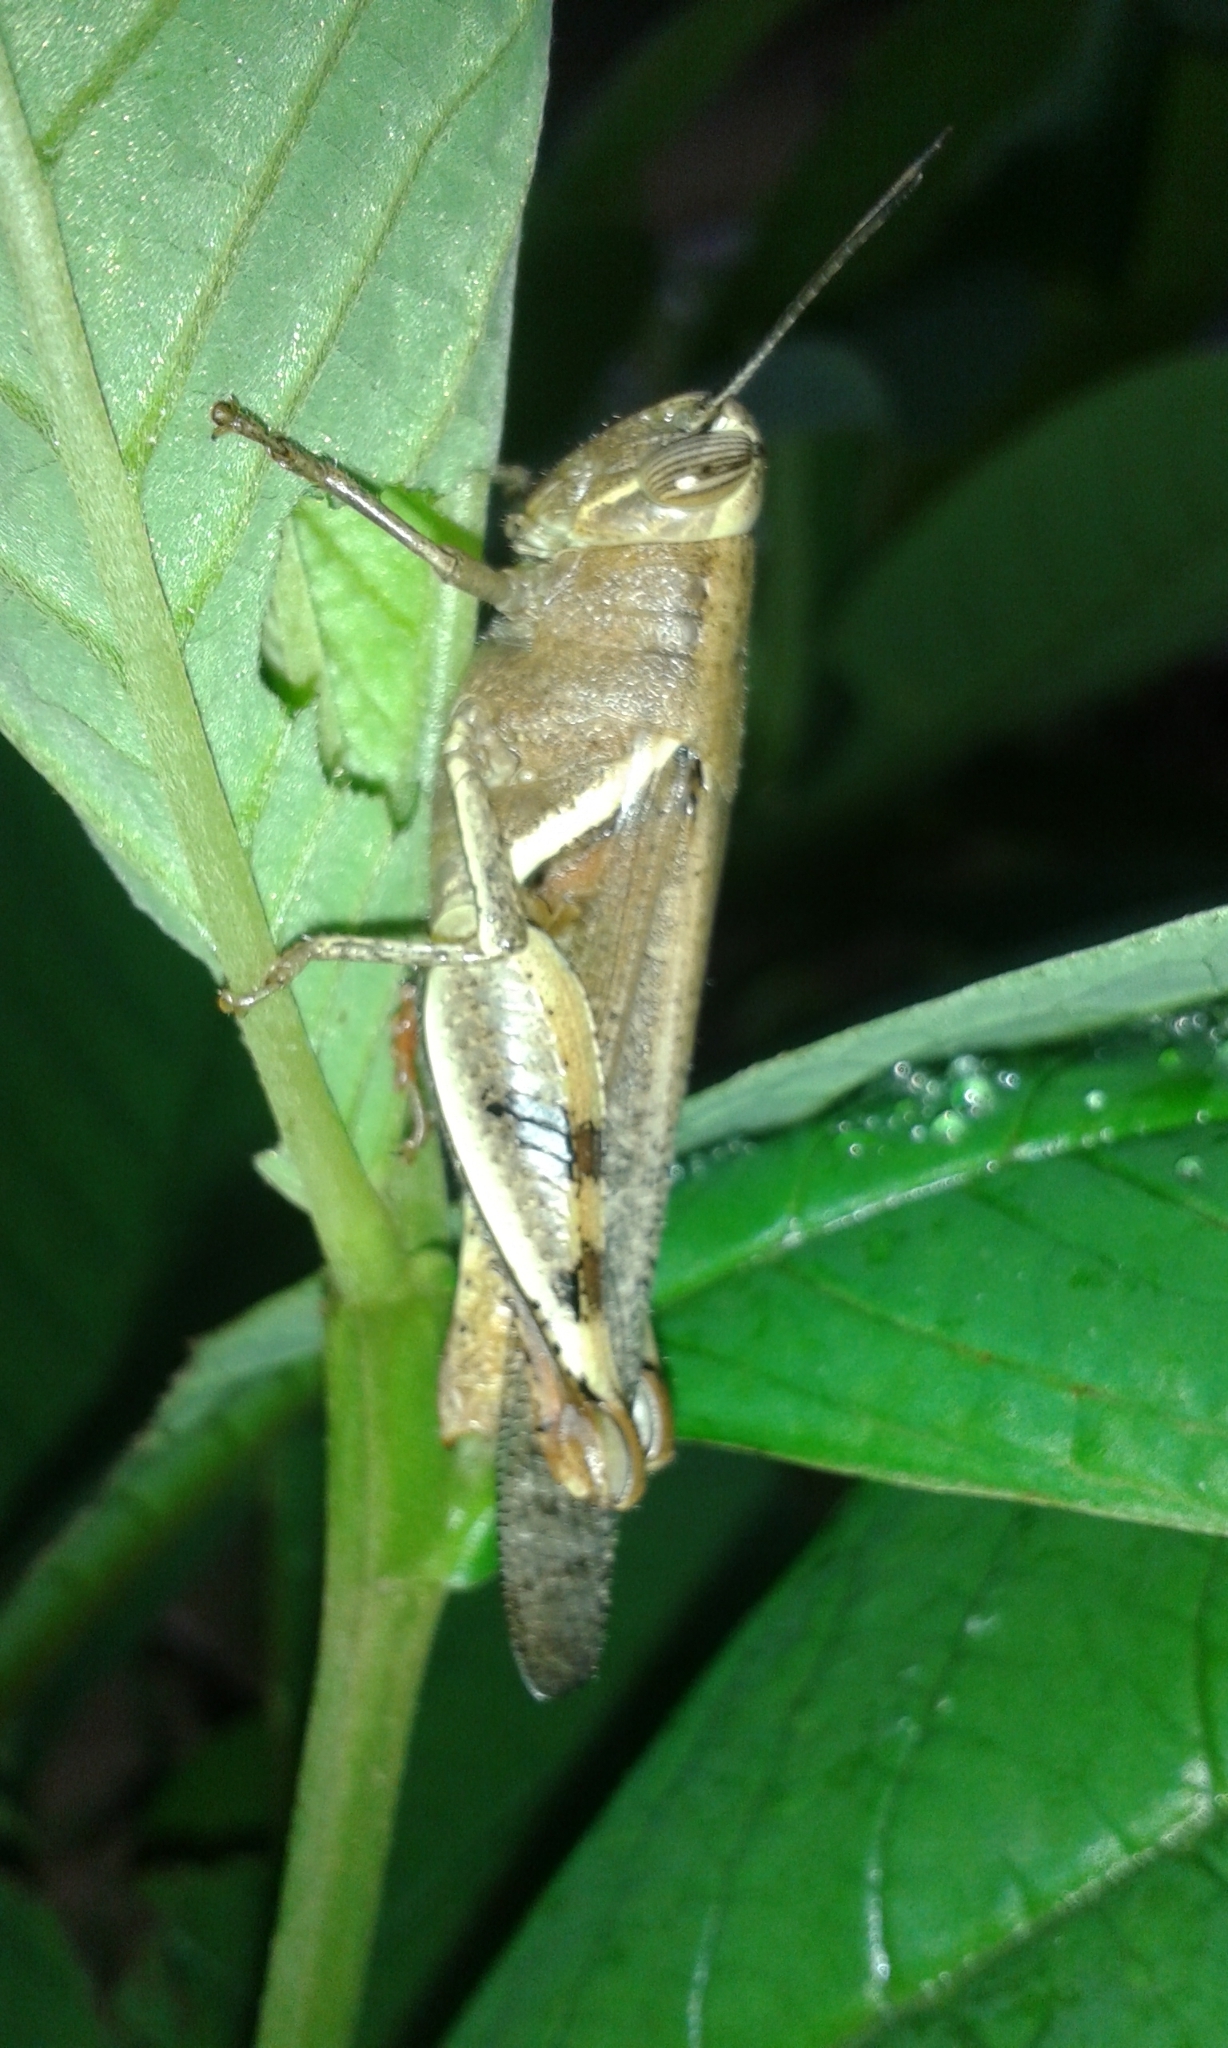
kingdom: Animalia
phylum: Arthropoda
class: Insecta
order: Orthoptera
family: Acrididae
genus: Diabolocatantops
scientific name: Diabolocatantops innotabilis
